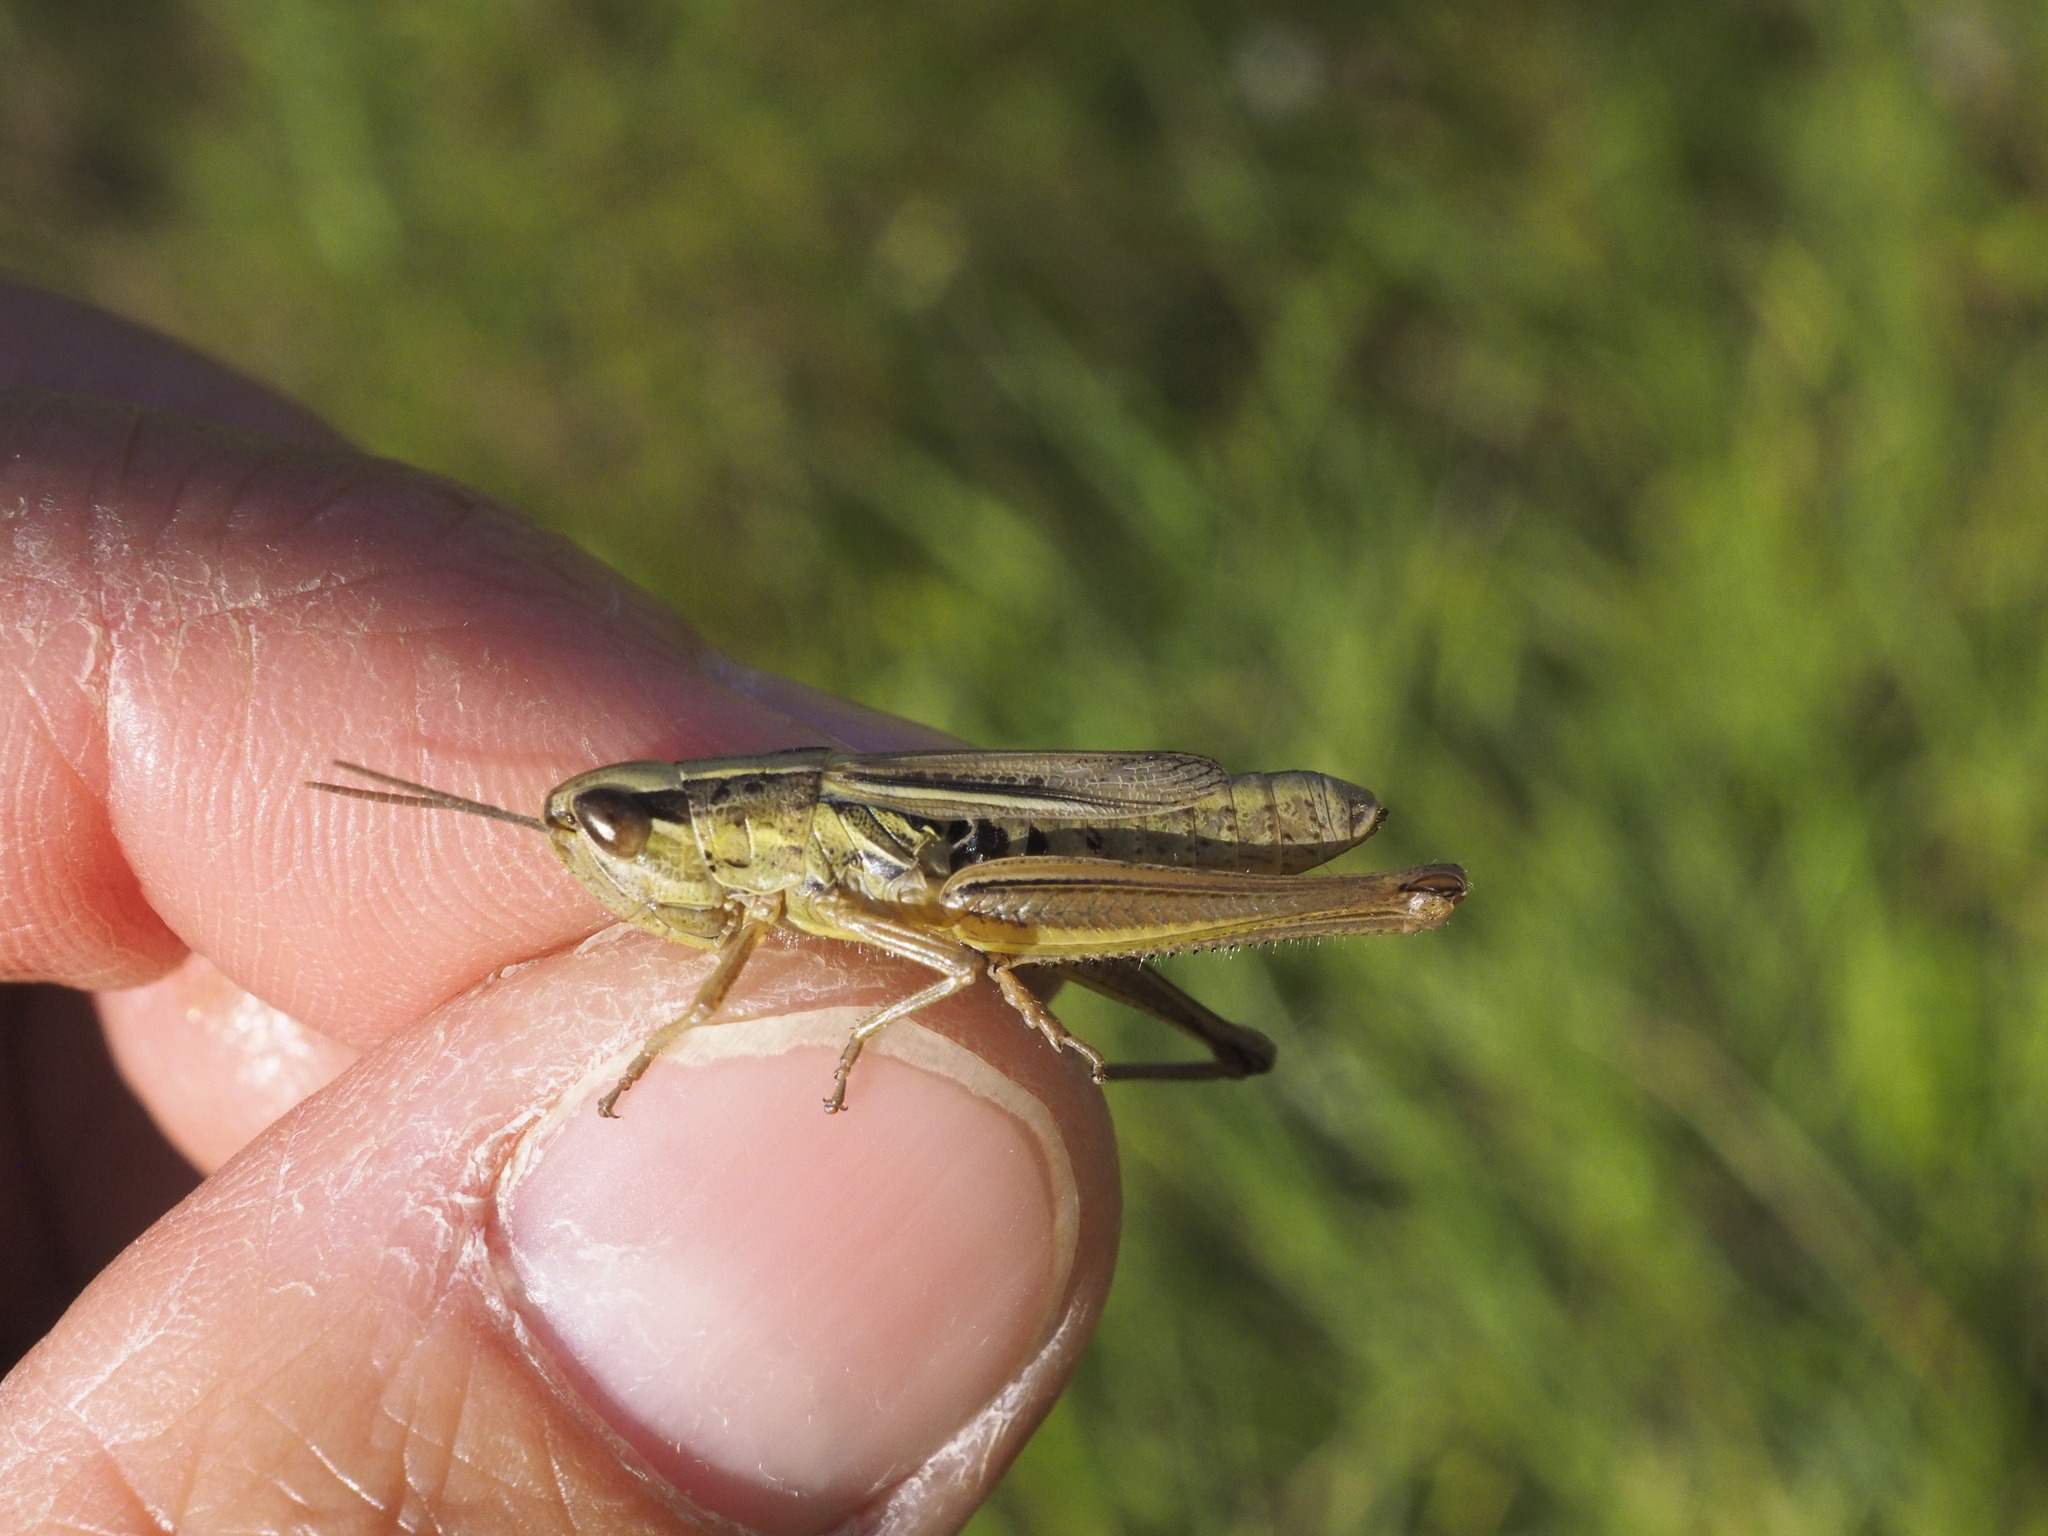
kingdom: Animalia
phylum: Arthropoda
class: Insecta
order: Orthoptera
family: Acrididae
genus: Euchorthippus
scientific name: Euchorthippus declivus
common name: Common straw grasshopper
